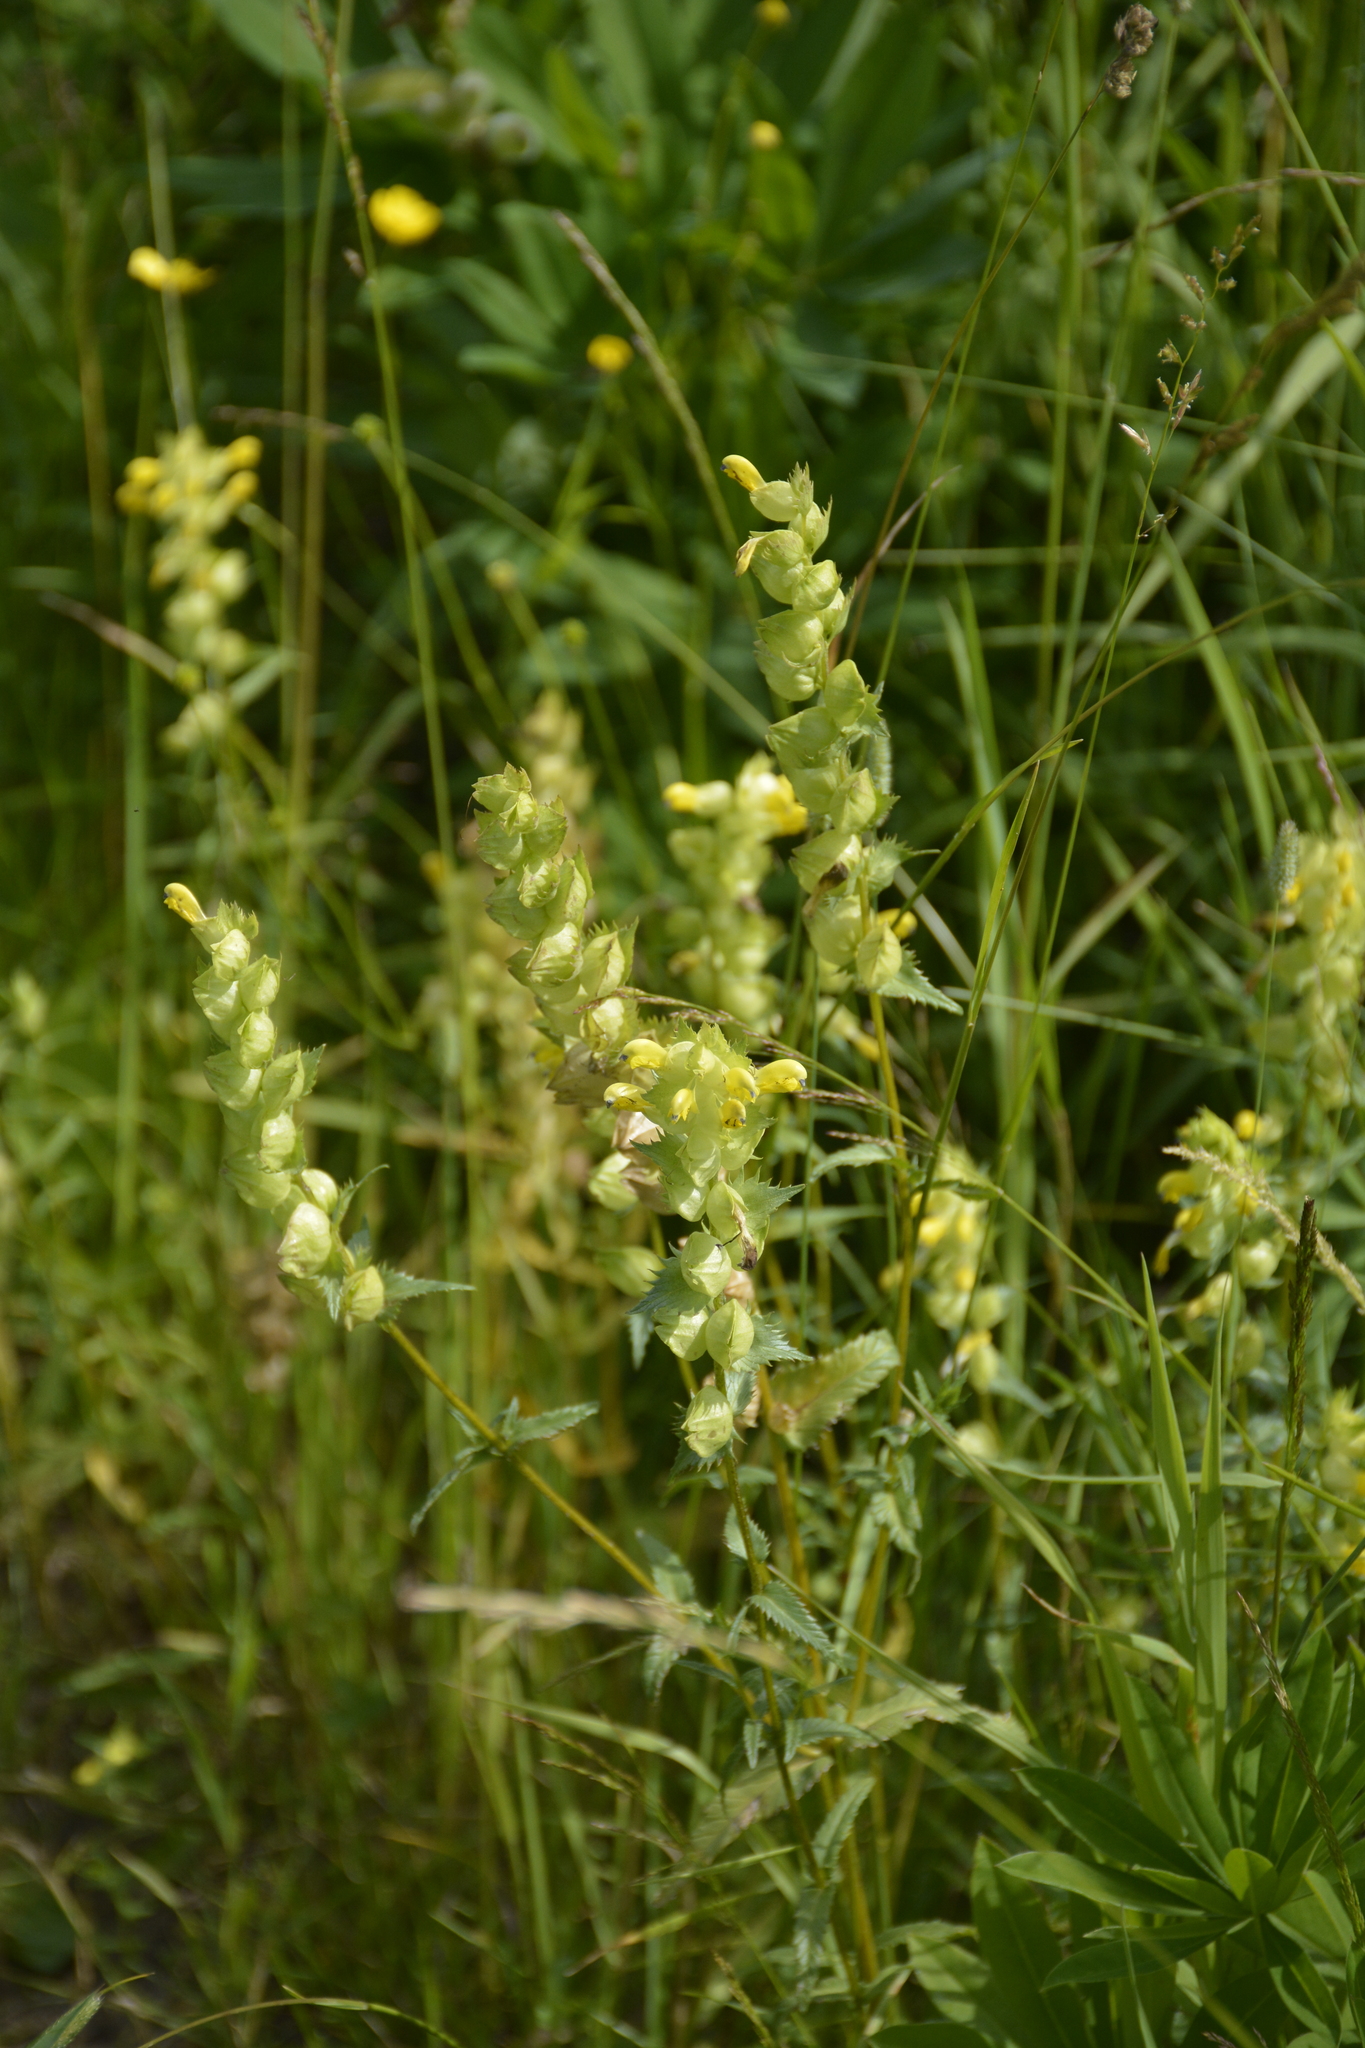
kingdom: Plantae
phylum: Tracheophyta
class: Magnoliopsida
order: Lamiales
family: Orobanchaceae
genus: Rhinanthus
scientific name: Rhinanthus serotinus
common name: Late-flowering yellow rattle
